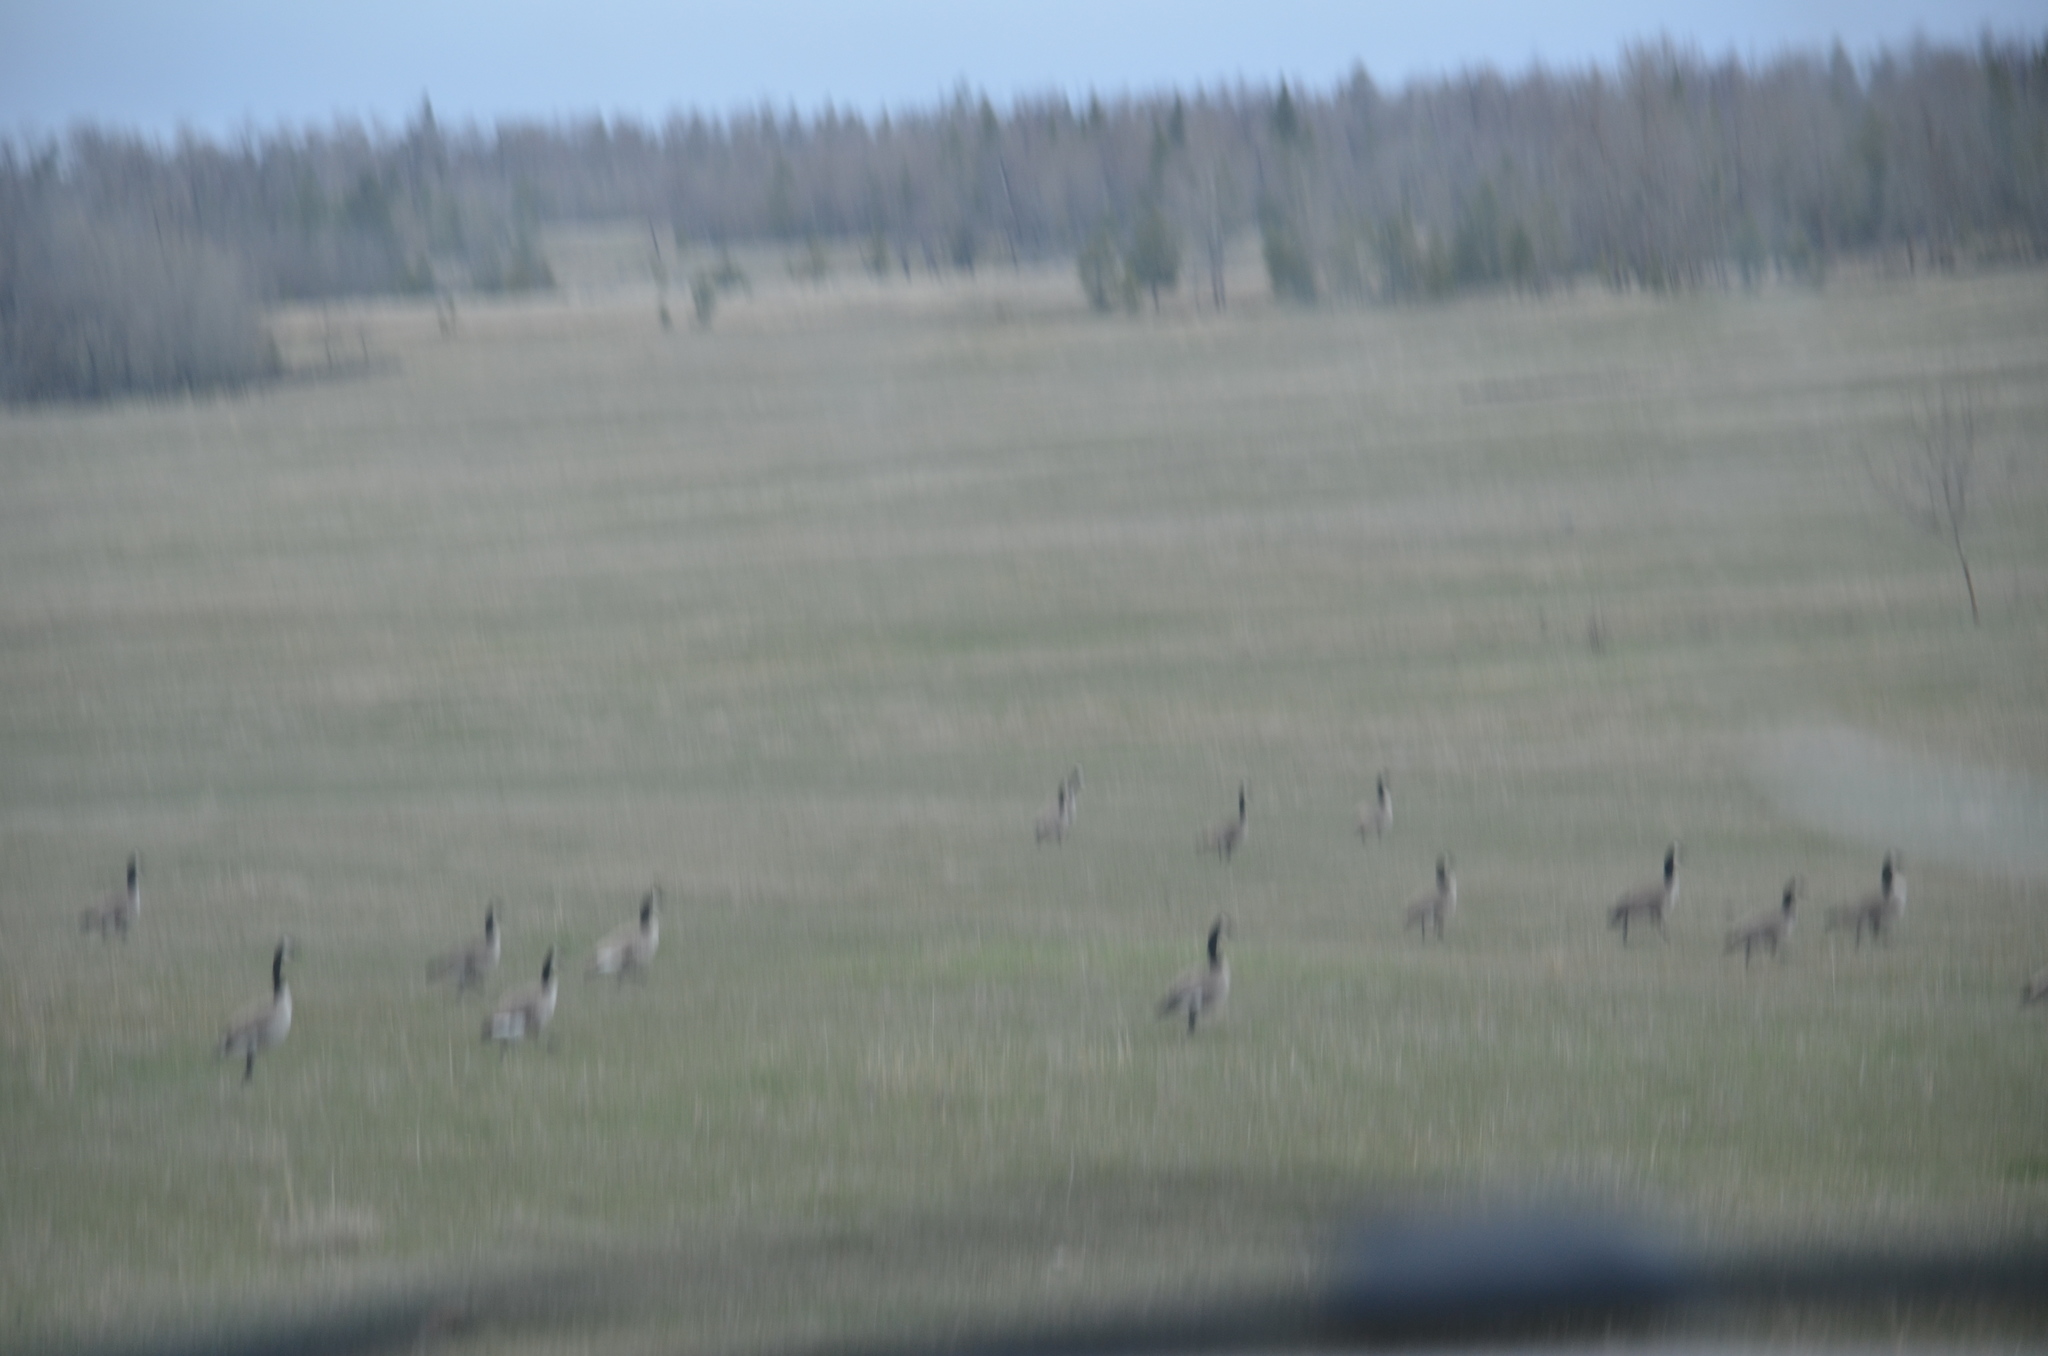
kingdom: Animalia
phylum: Chordata
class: Aves
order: Anseriformes
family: Anatidae
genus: Branta
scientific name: Branta canadensis
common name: Canada goose
